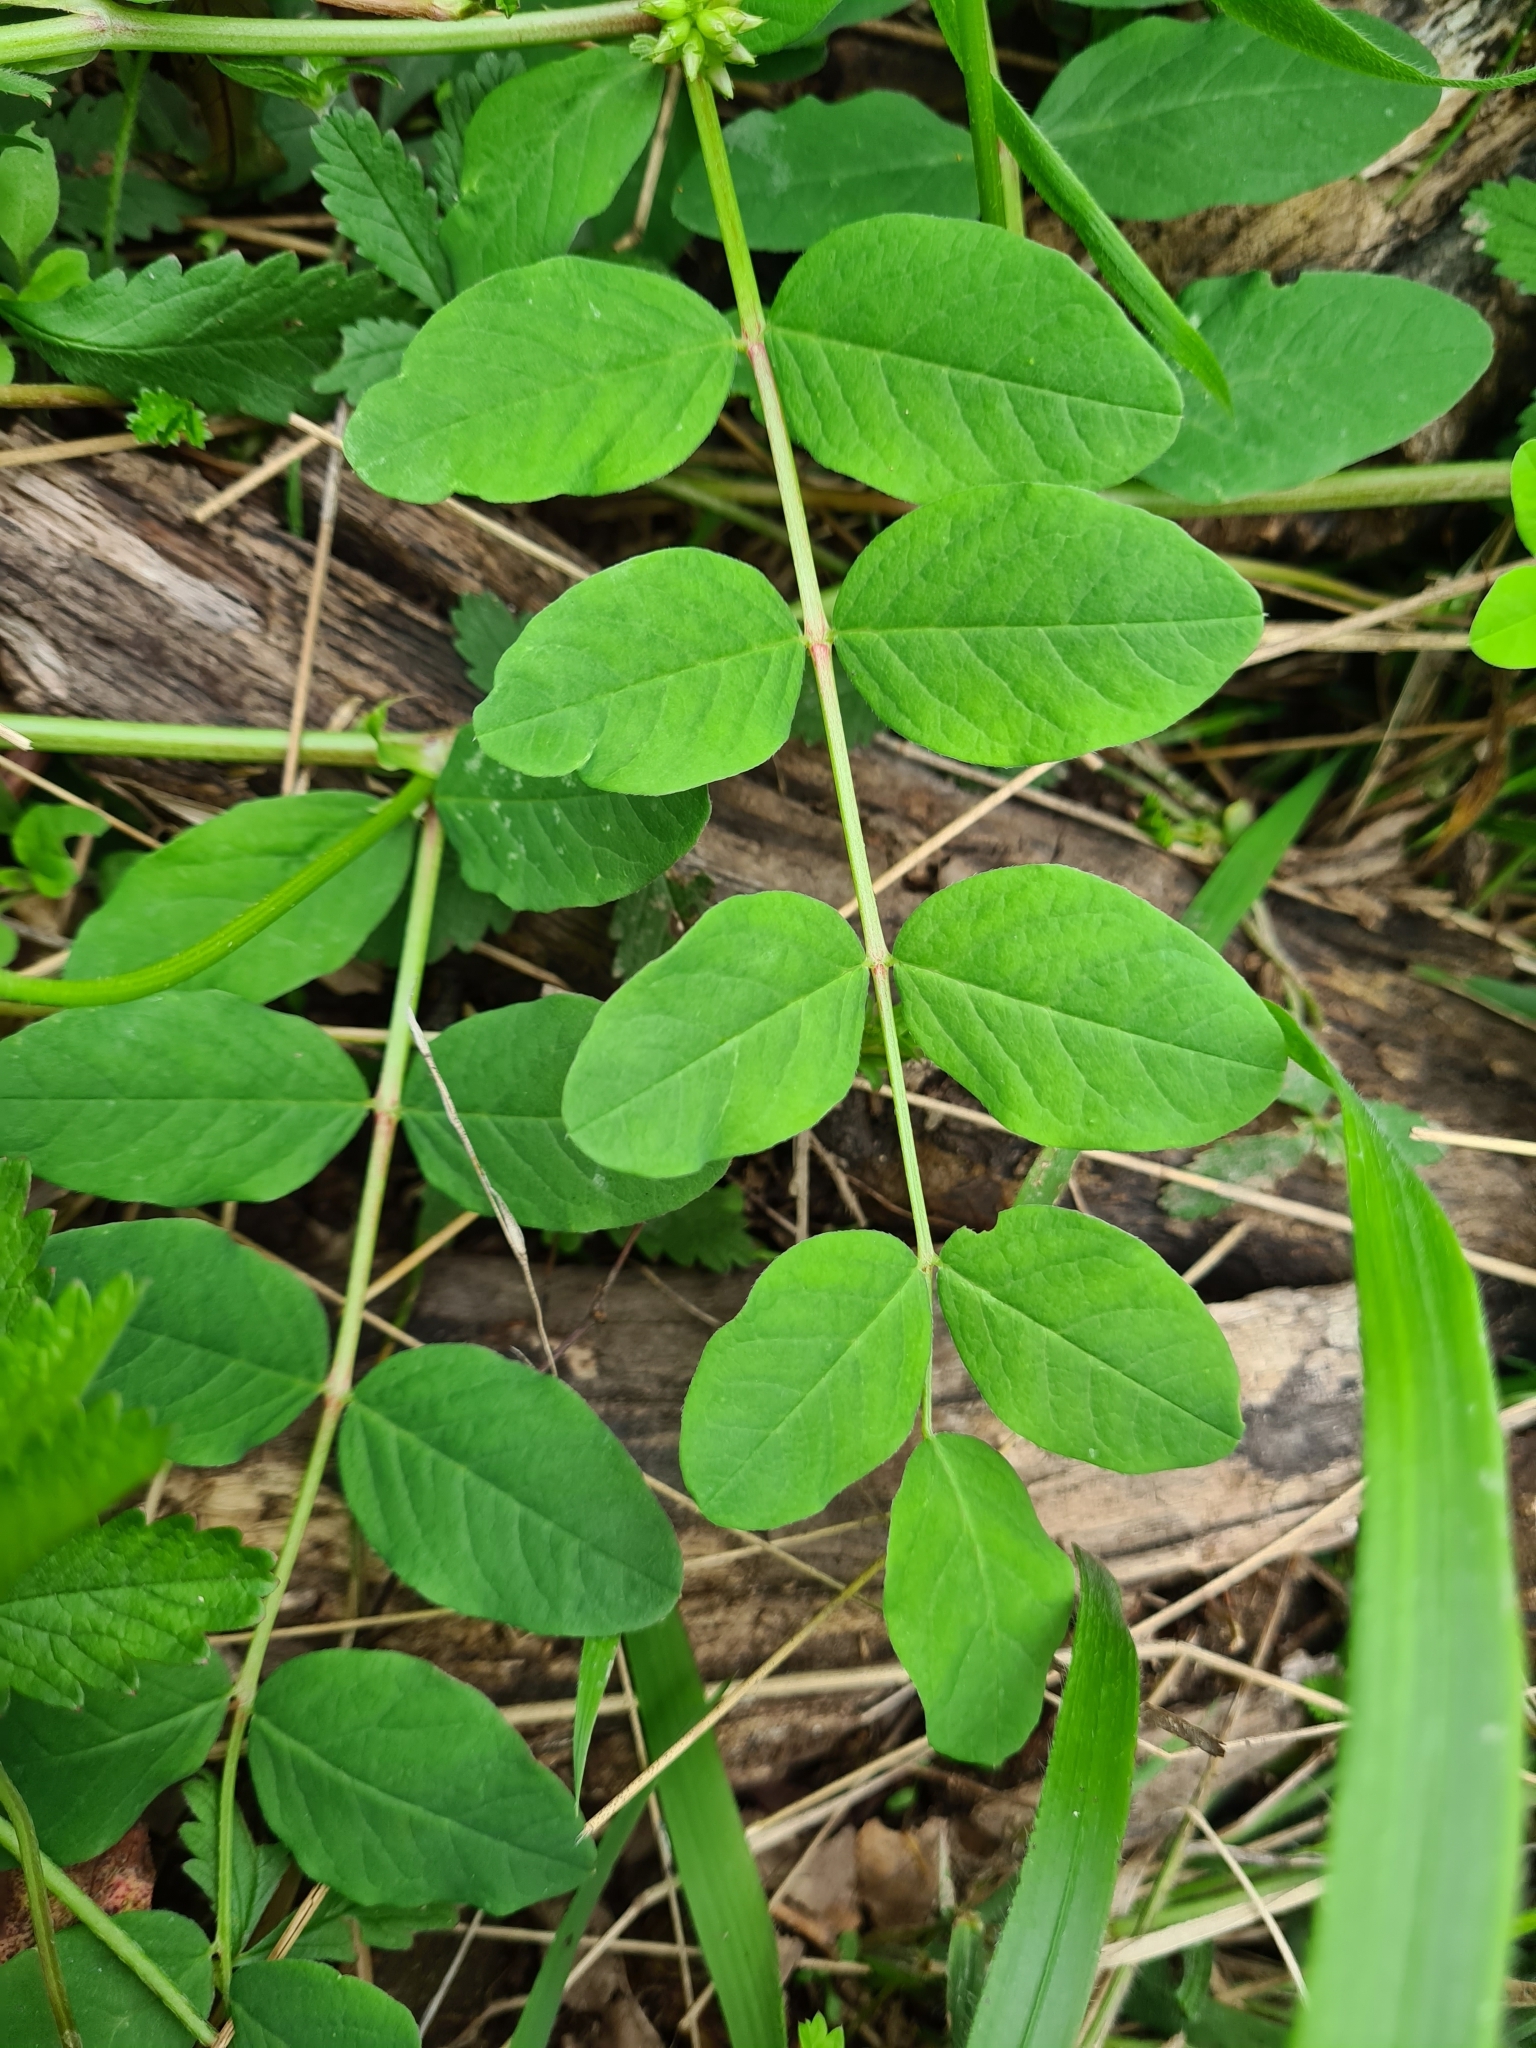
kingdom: Plantae
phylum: Tracheophyta
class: Magnoliopsida
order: Fabales
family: Fabaceae
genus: Astragalus
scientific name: Astragalus glycyphyllos
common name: Wild liquorice
